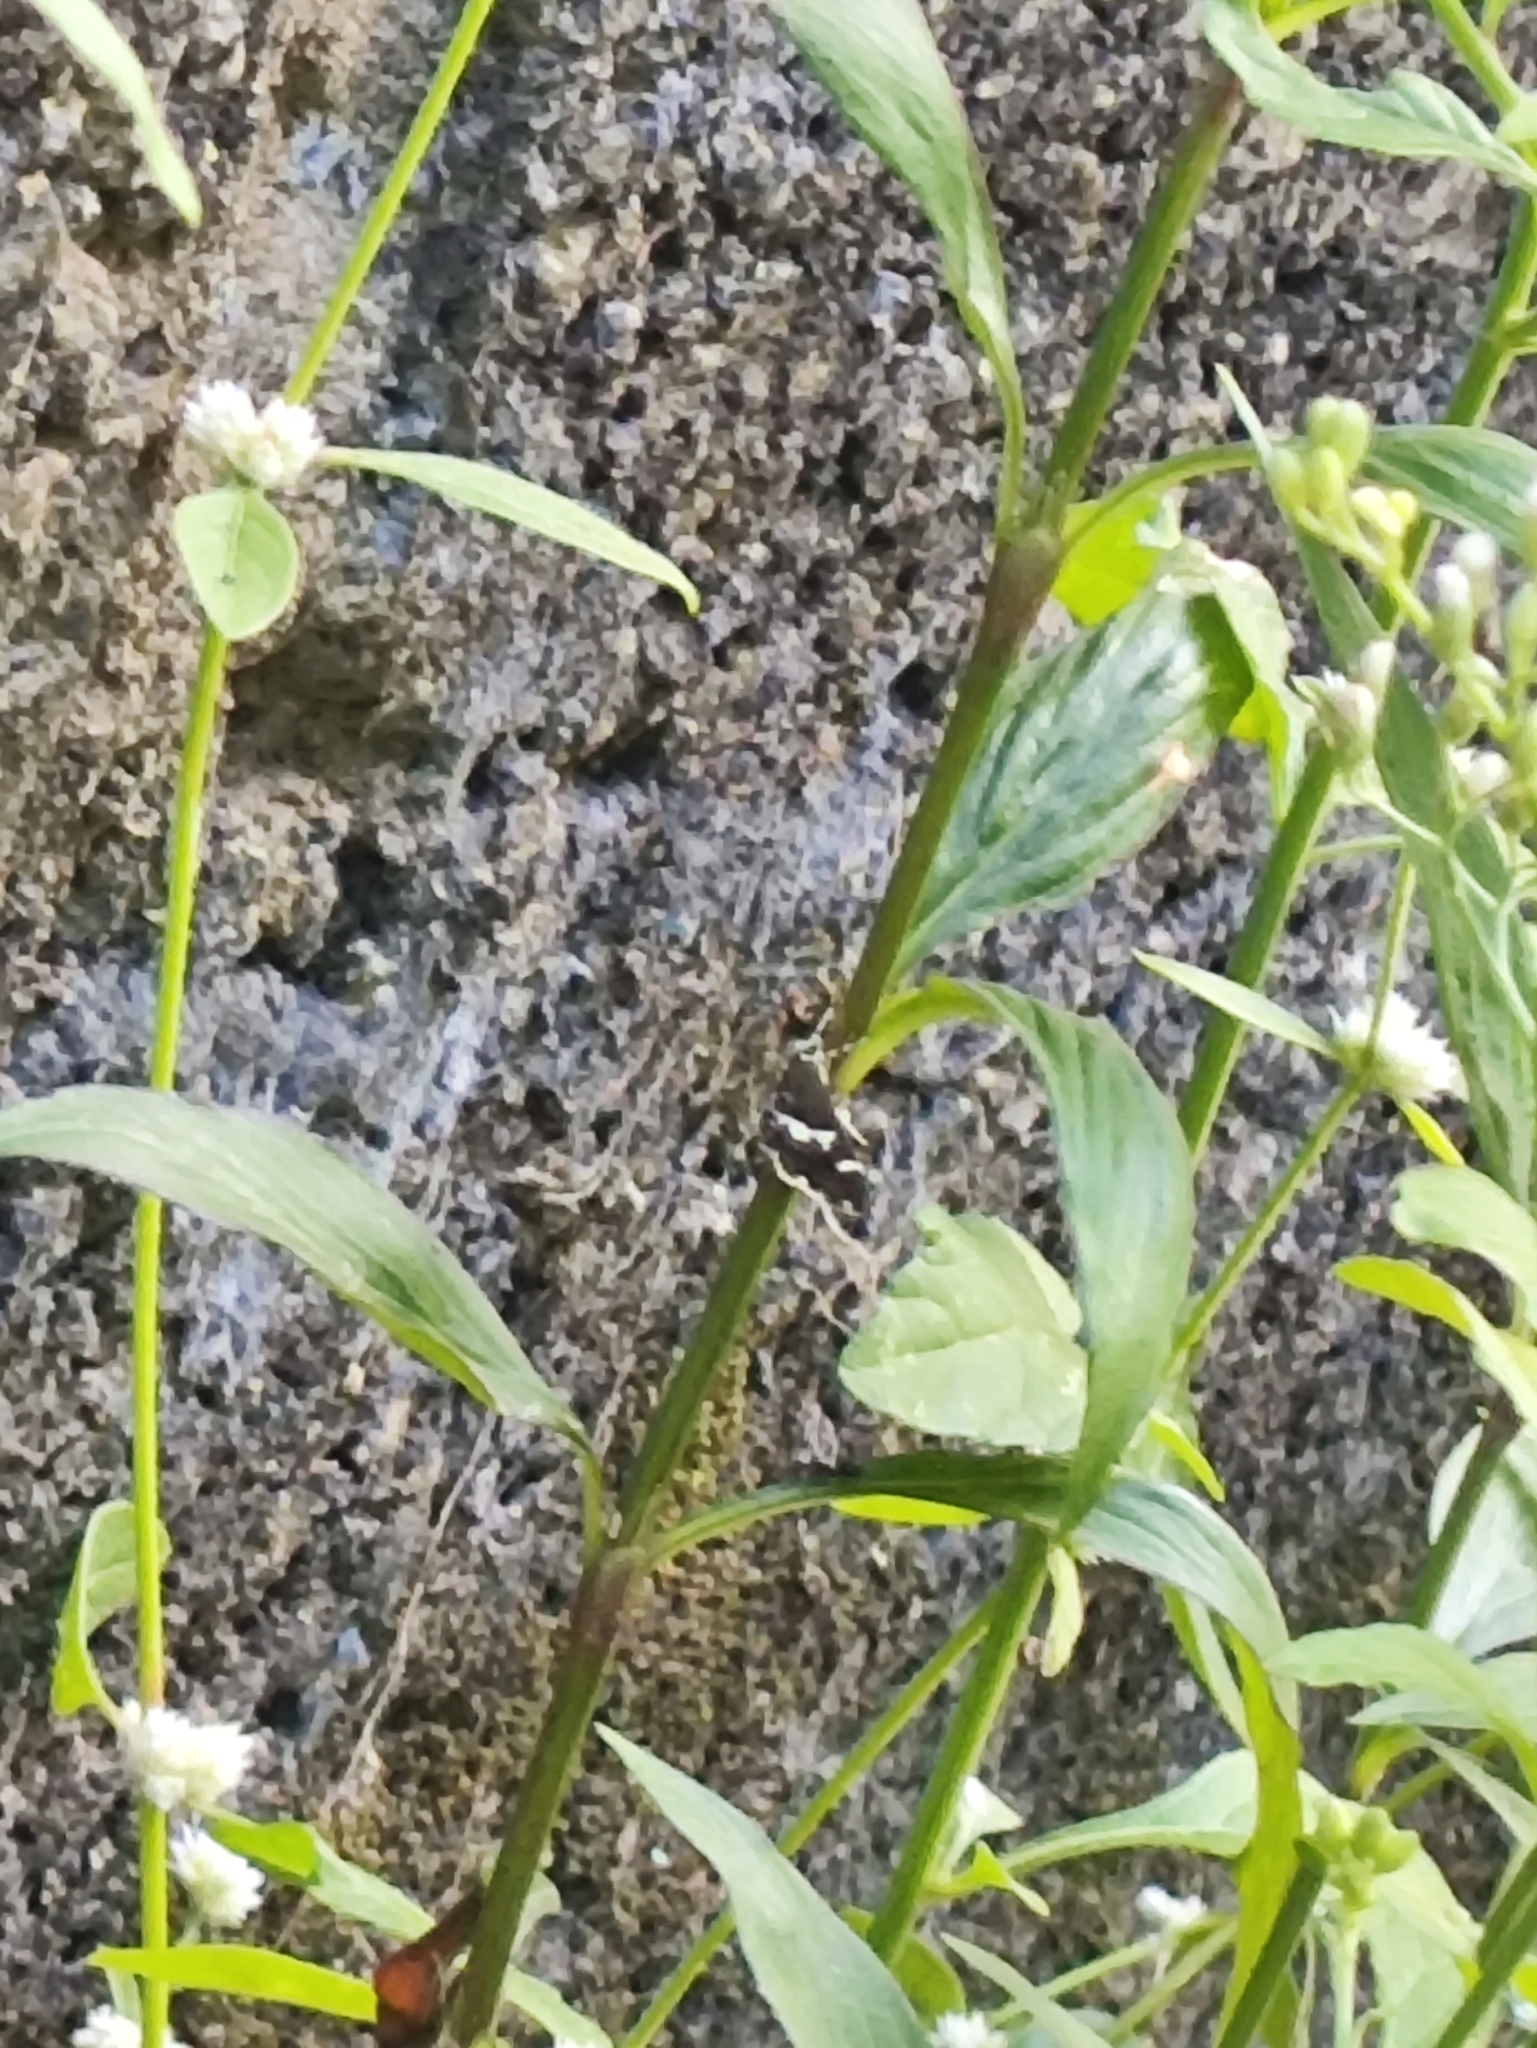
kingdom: Animalia
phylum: Arthropoda
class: Insecta
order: Lepidoptera
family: Crambidae
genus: Spoladea
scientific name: Spoladea recurvalis
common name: Beet webworm moth
